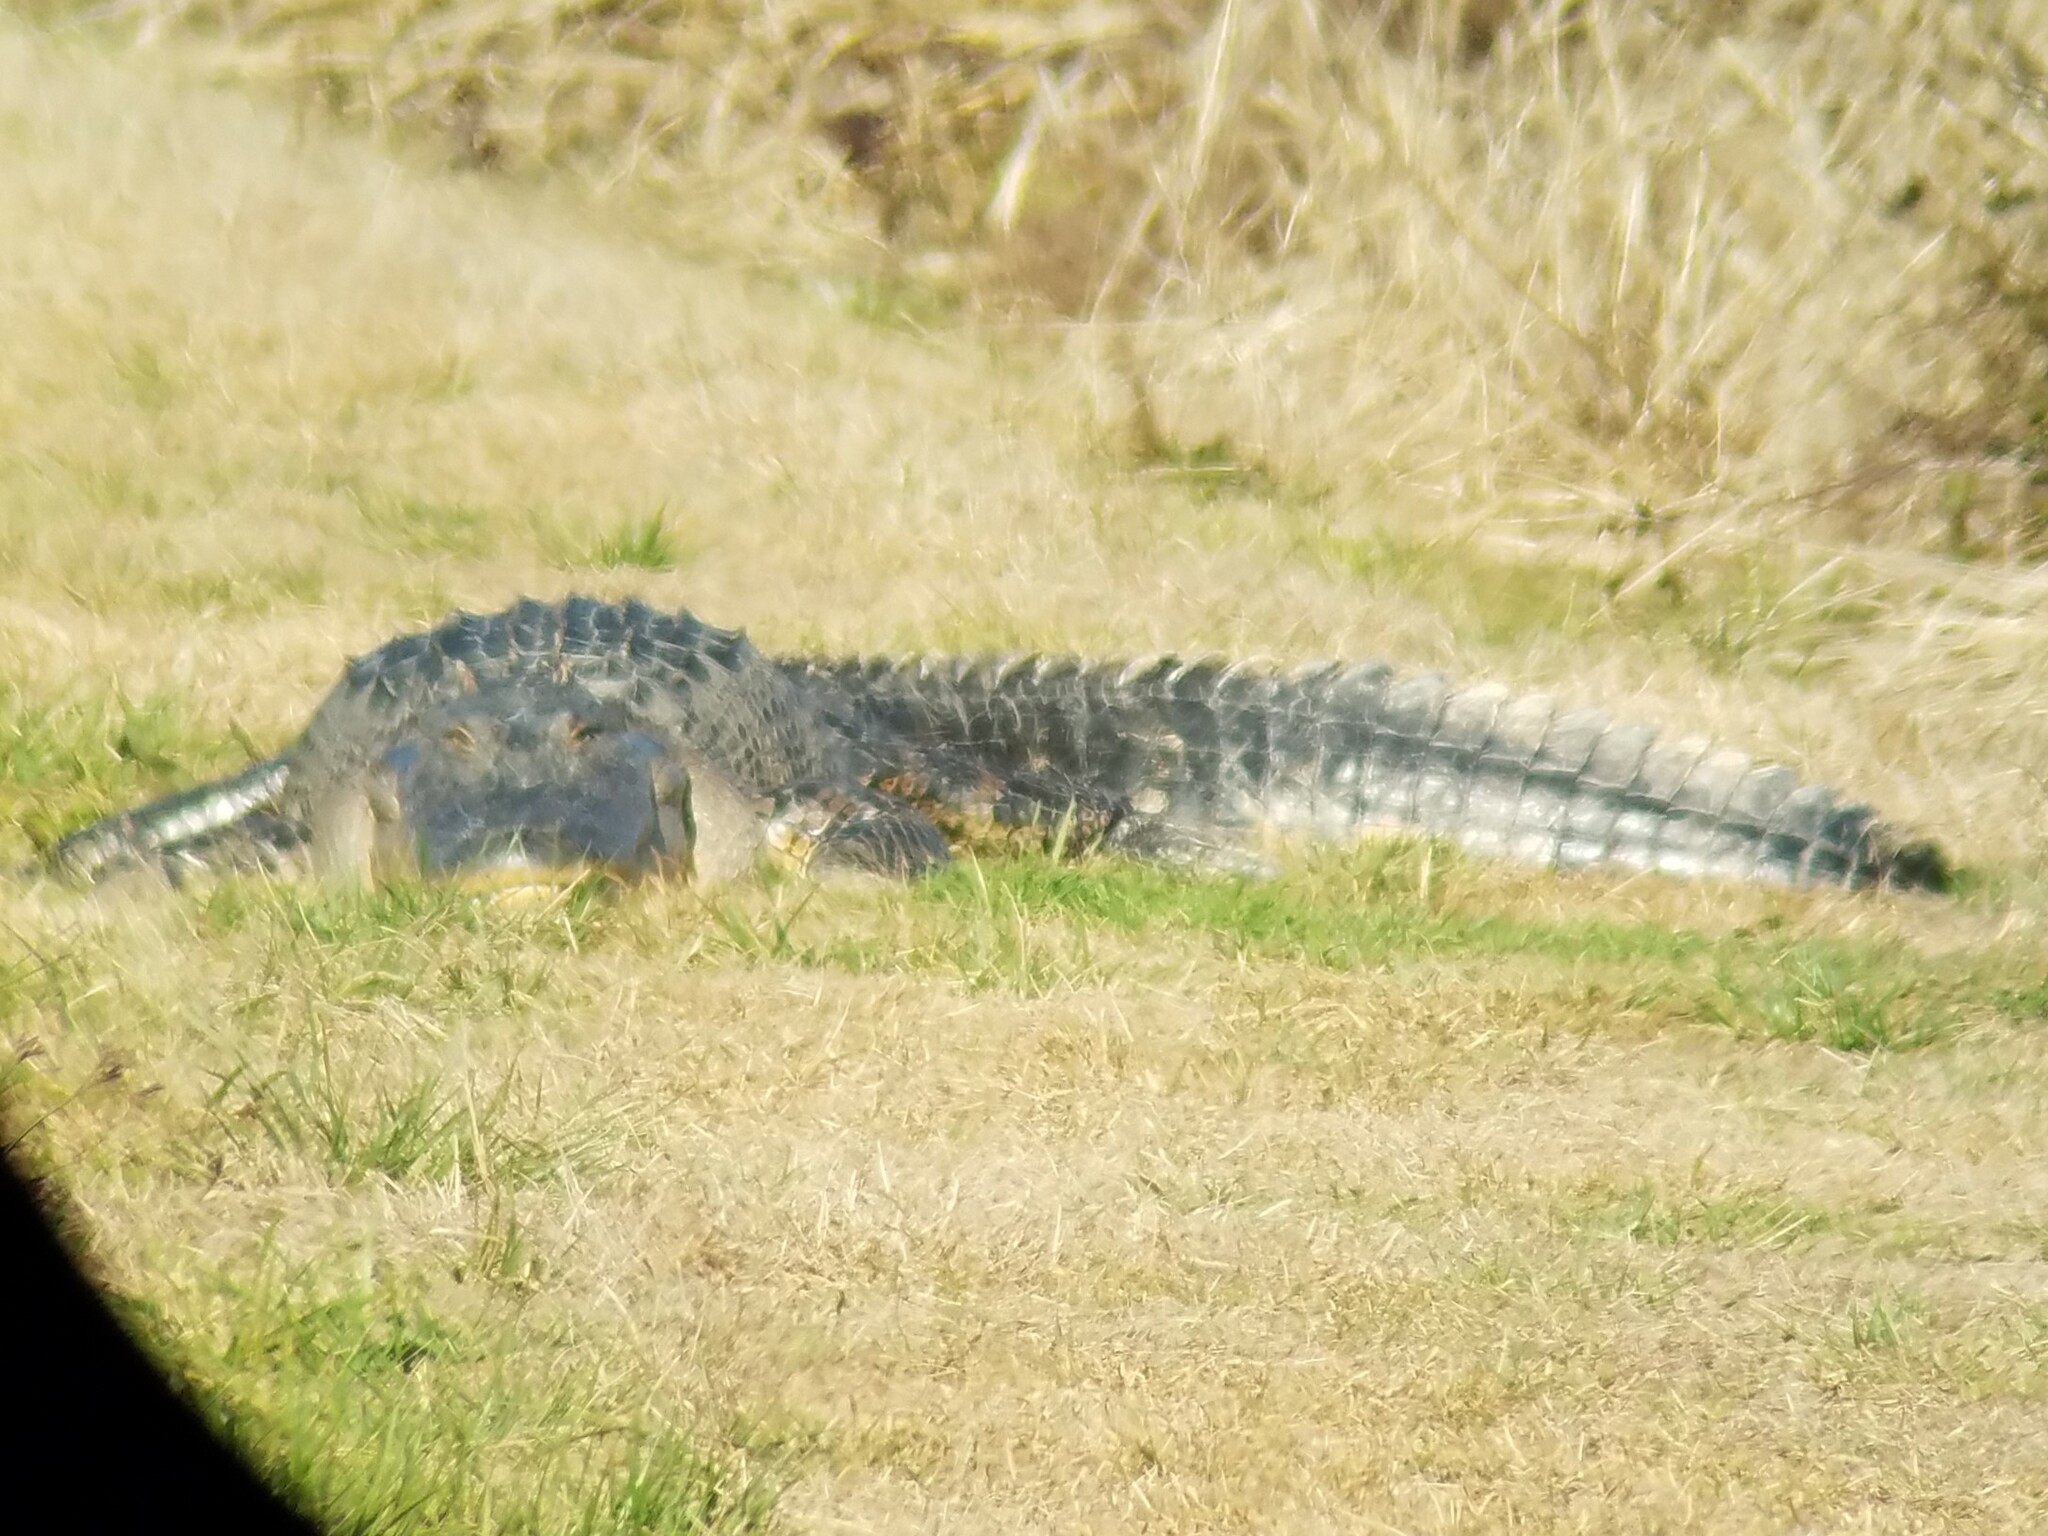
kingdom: Animalia
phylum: Chordata
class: Crocodylia
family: Alligatoridae
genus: Alligator
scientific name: Alligator mississippiensis
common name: American alligator
